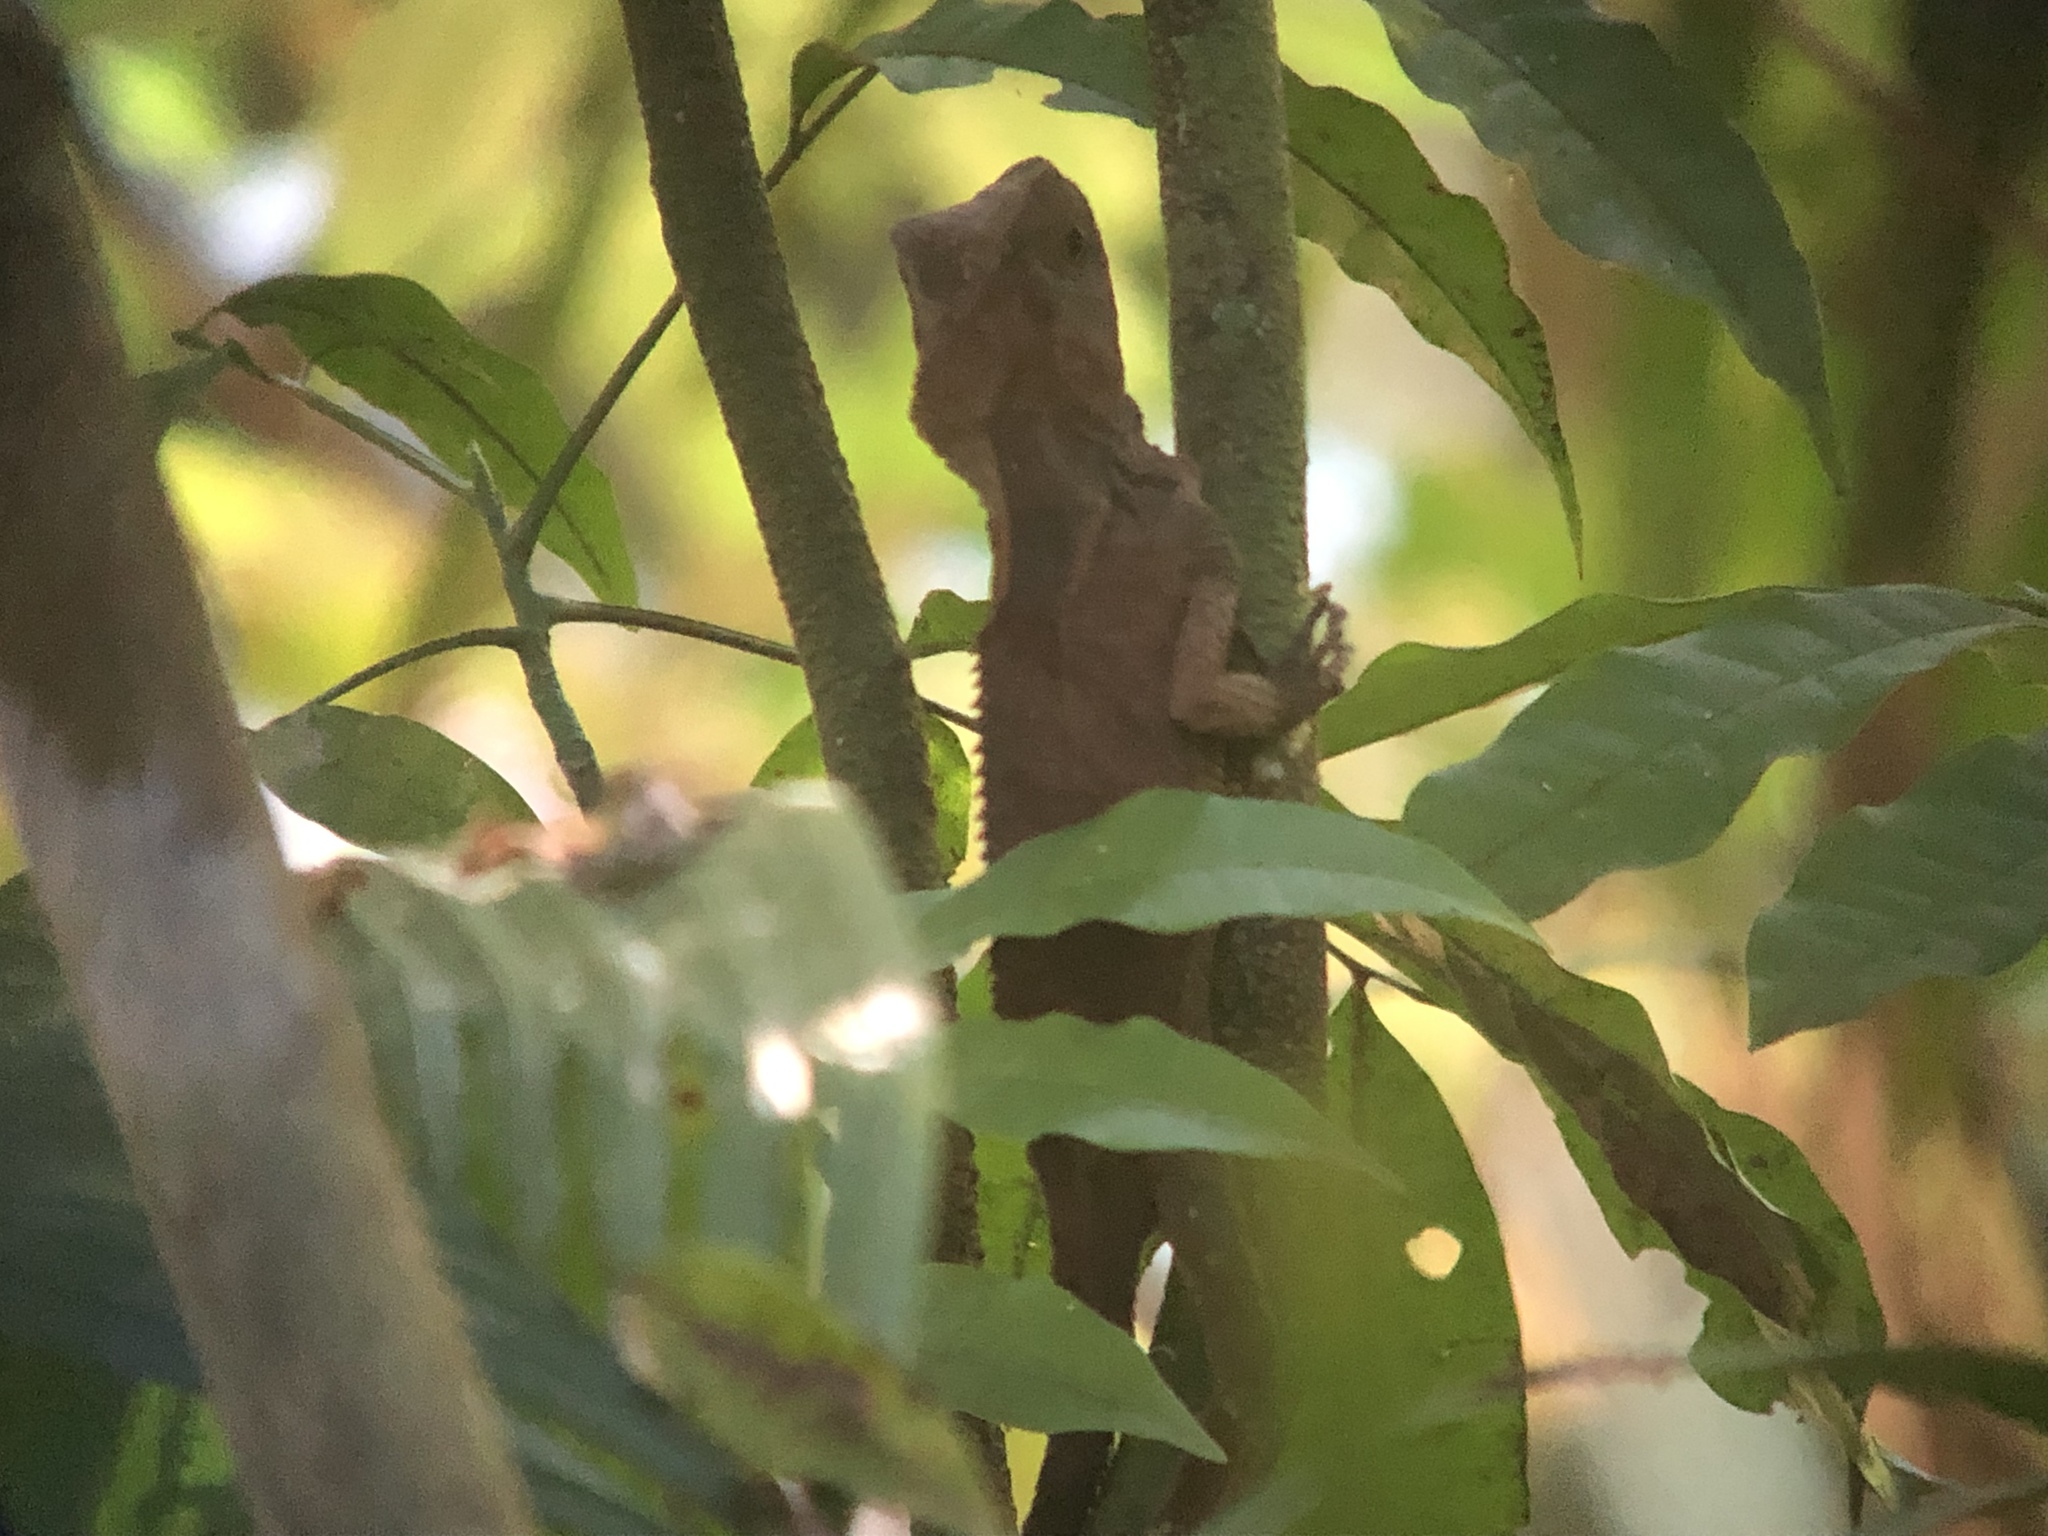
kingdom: Animalia
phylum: Chordata
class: Squamata
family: Corytophanidae
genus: Corytophanes
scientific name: Corytophanes cristatus
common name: Smooth helmeted iguana
